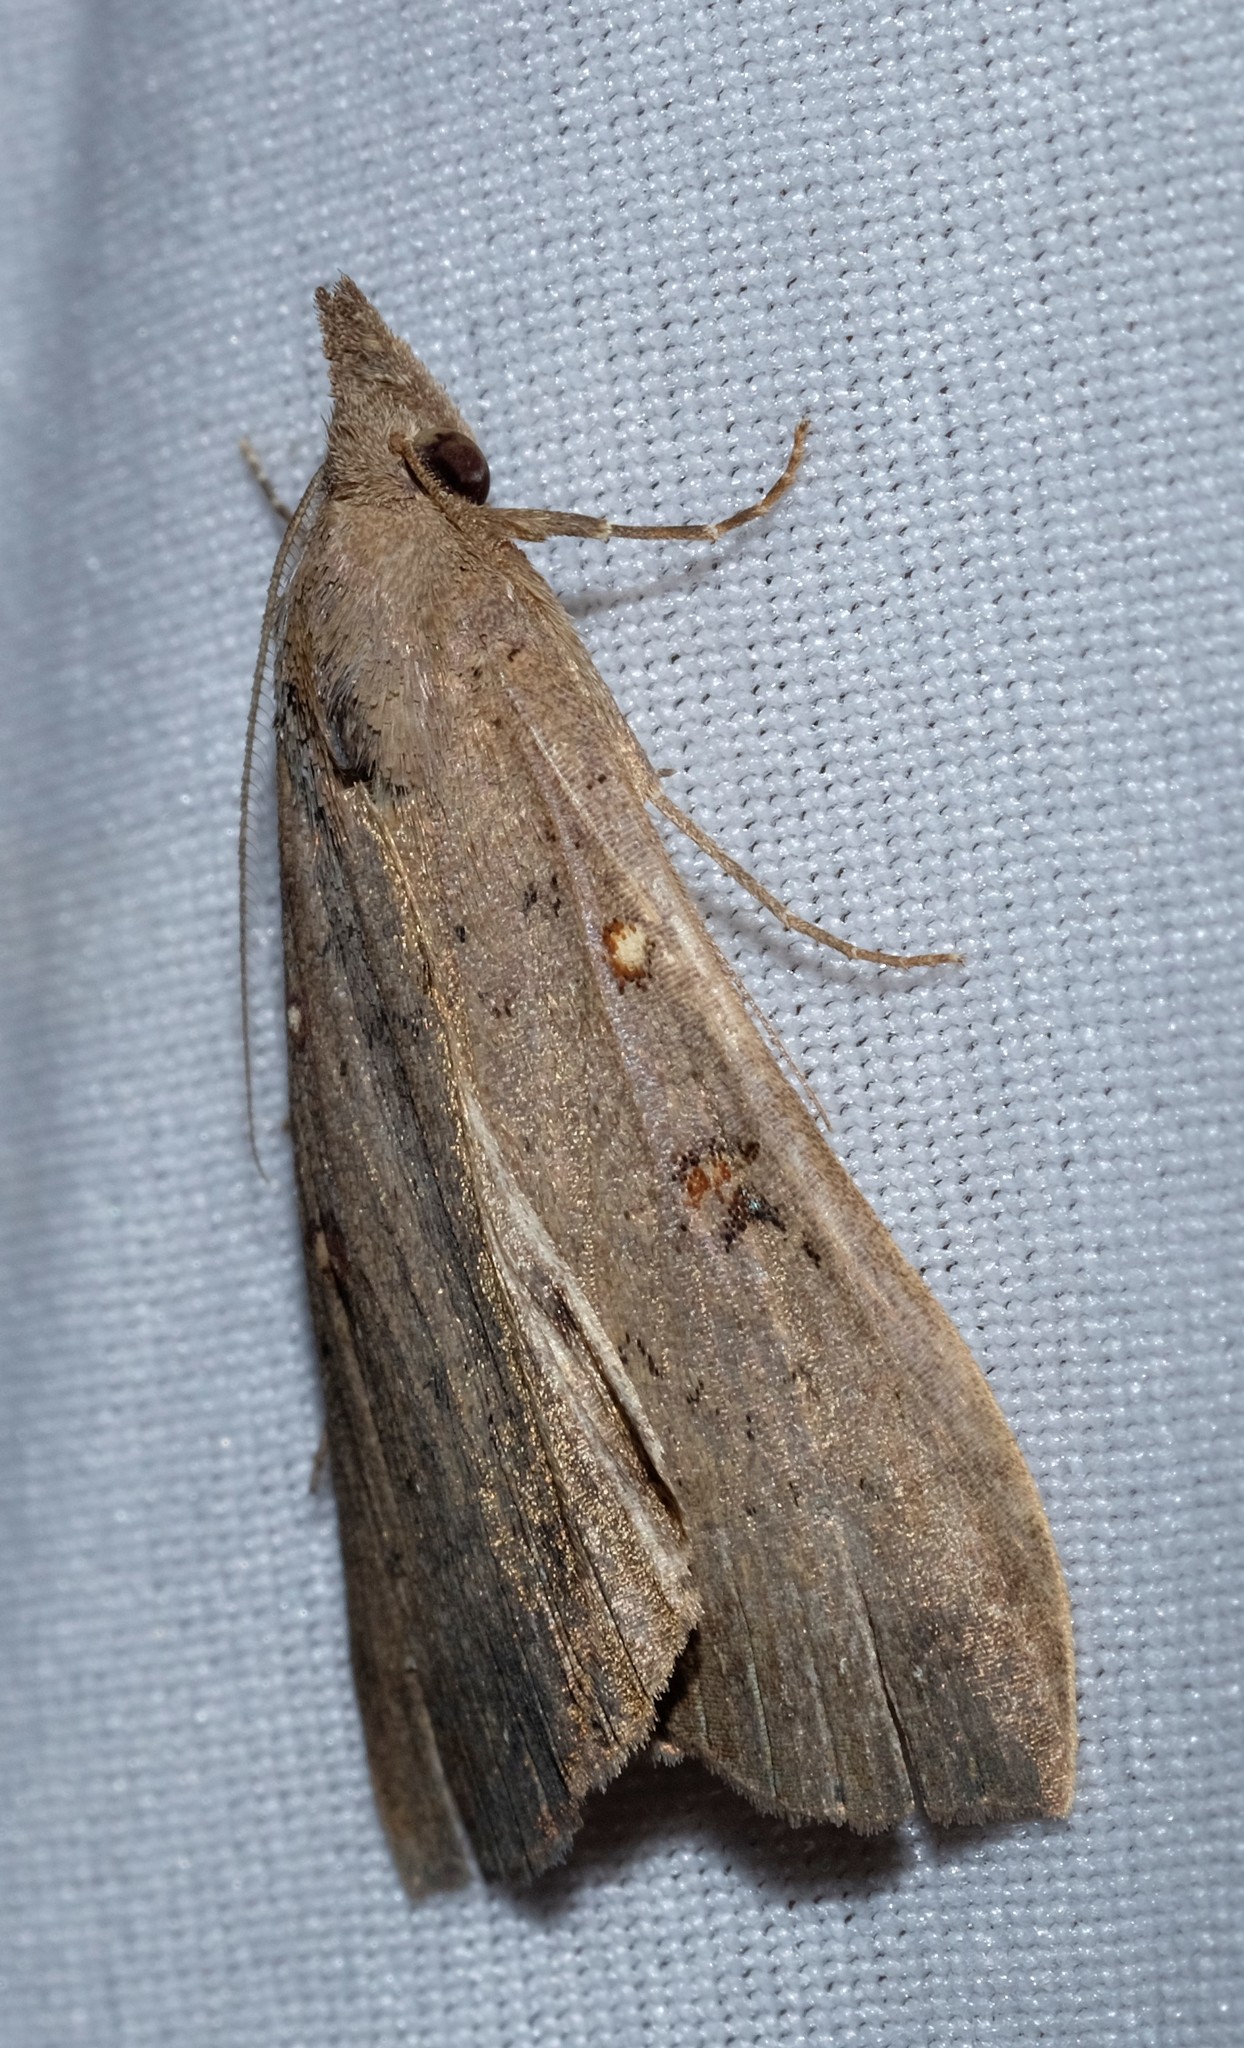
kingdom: Animalia
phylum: Arthropoda
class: Insecta
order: Lepidoptera
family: Erebidae
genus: Rhapsa
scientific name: Rhapsa suscitatalis
